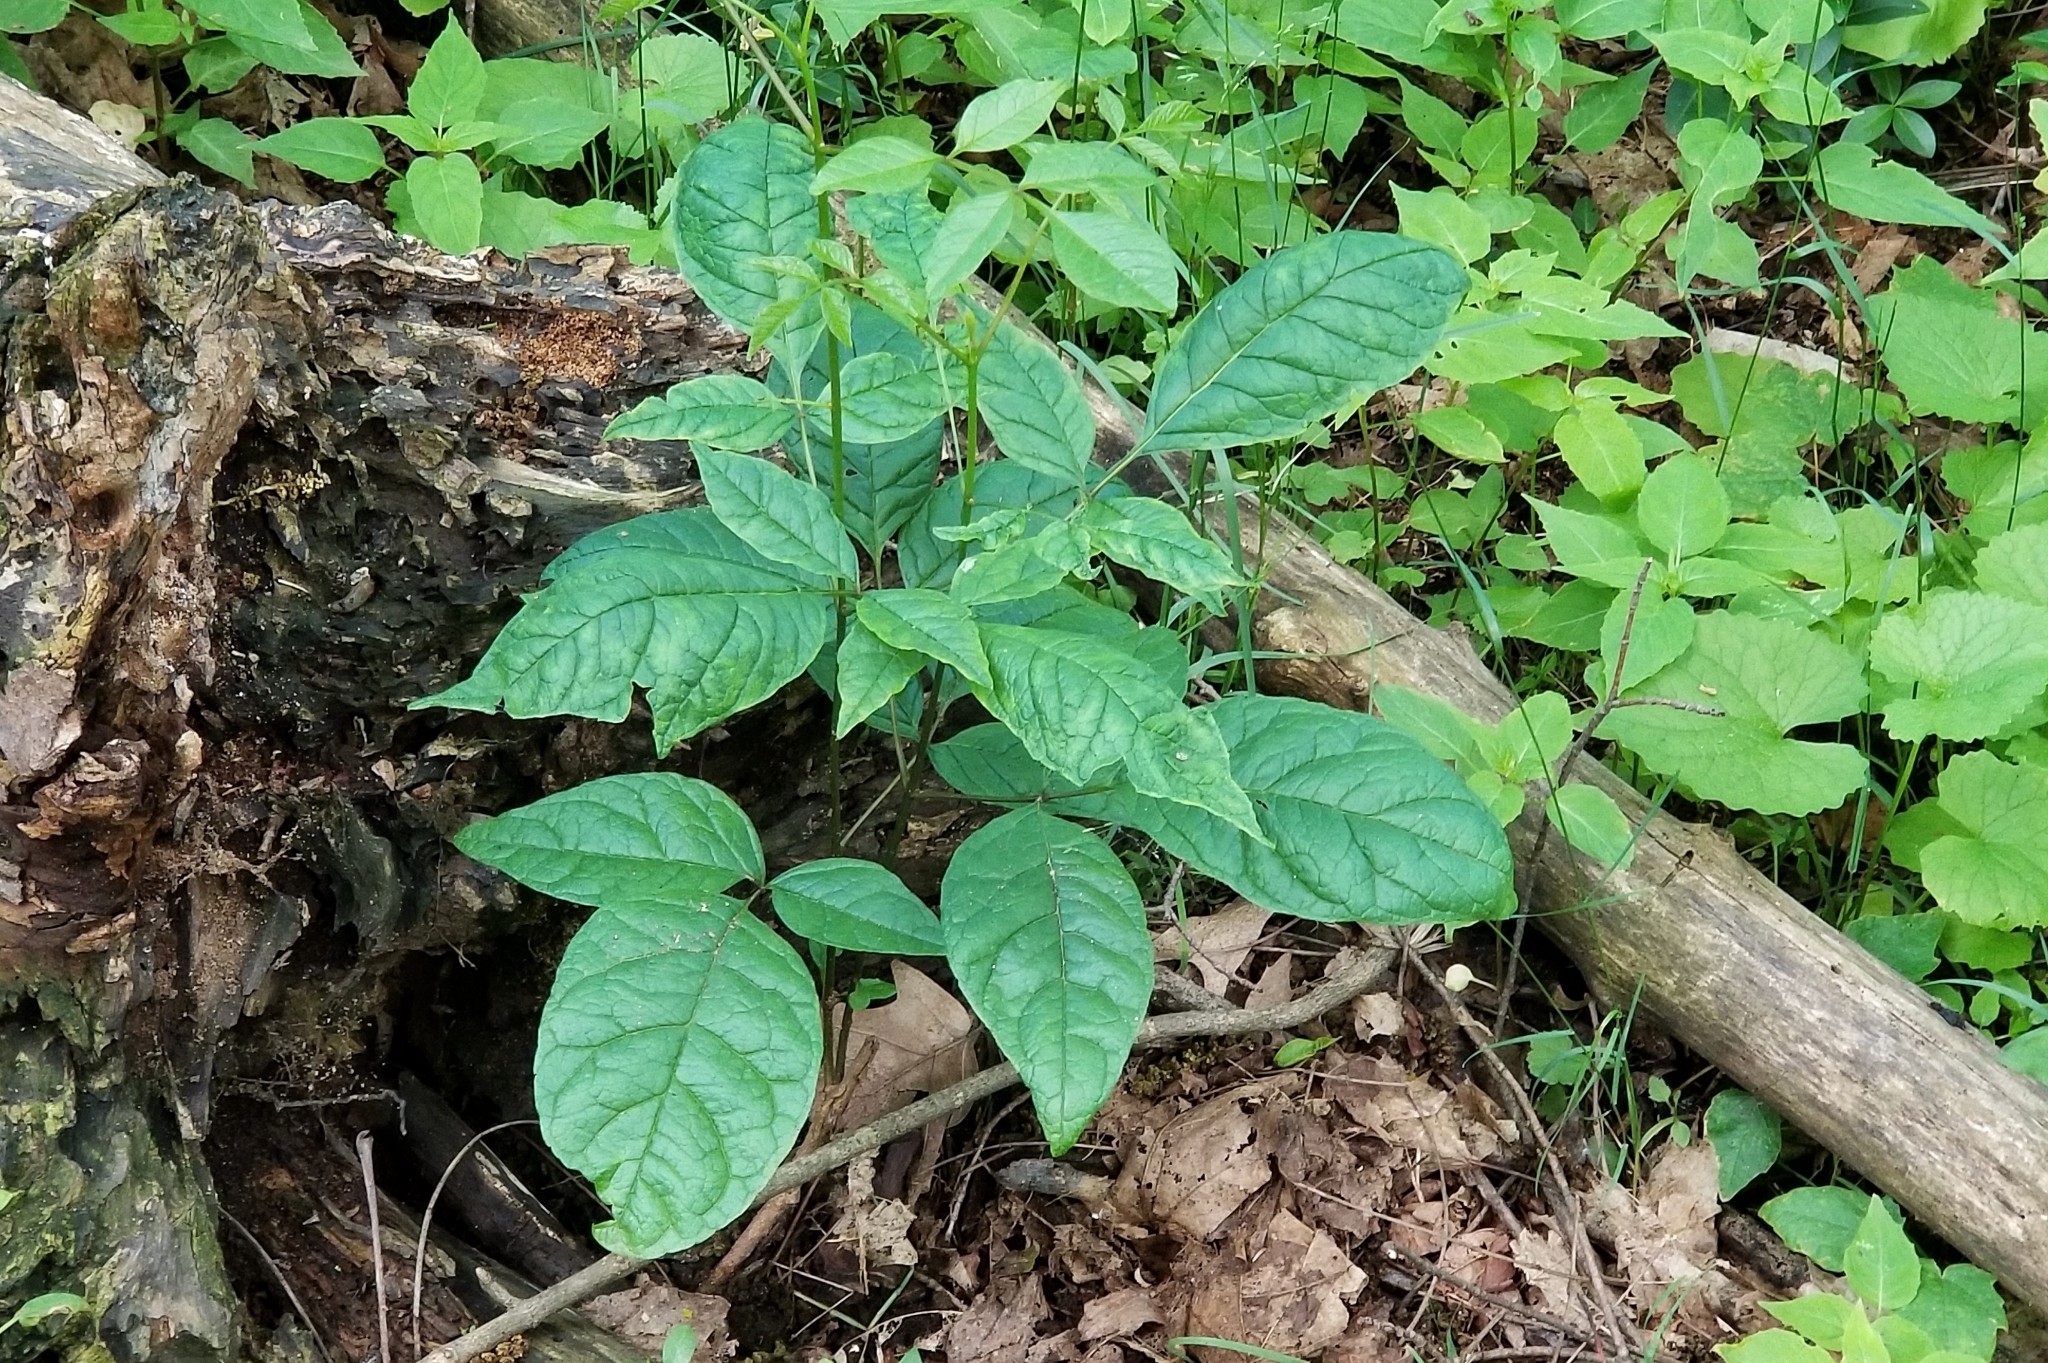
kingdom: Plantae
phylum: Tracheophyta
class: Magnoliopsida
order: Sapindales
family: Anacardiaceae
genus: Toxicodendron
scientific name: Toxicodendron radicans
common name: Poison ivy
